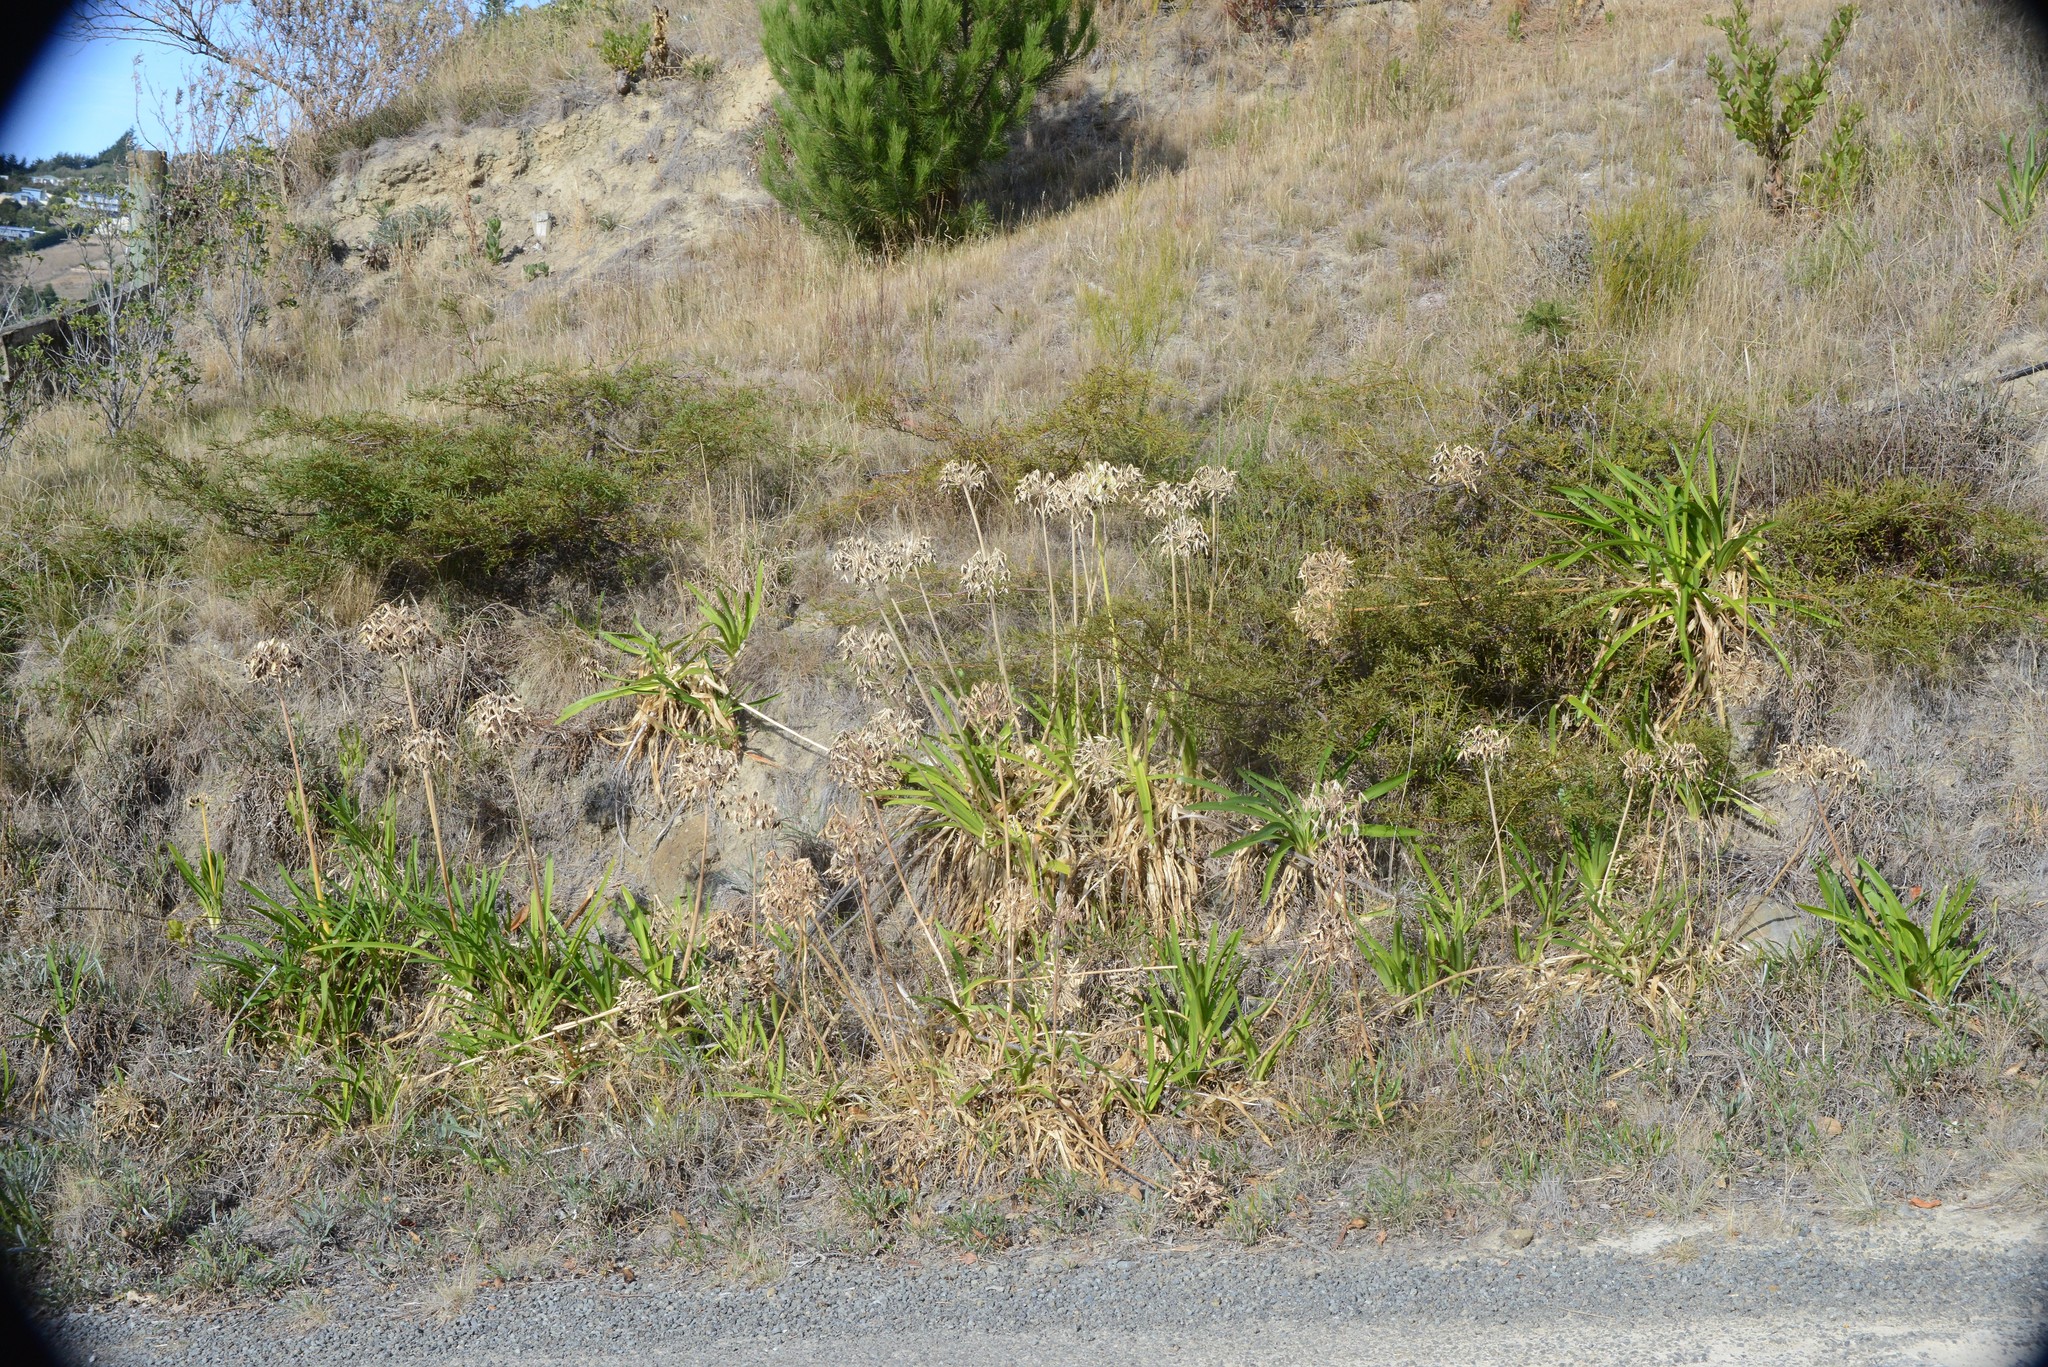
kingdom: Plantae
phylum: Tracheophyta
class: Liliopsida
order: Asparagales
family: Amaryllidaceae
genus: Agapanthus
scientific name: Agapanthus praecox
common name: African-lily
